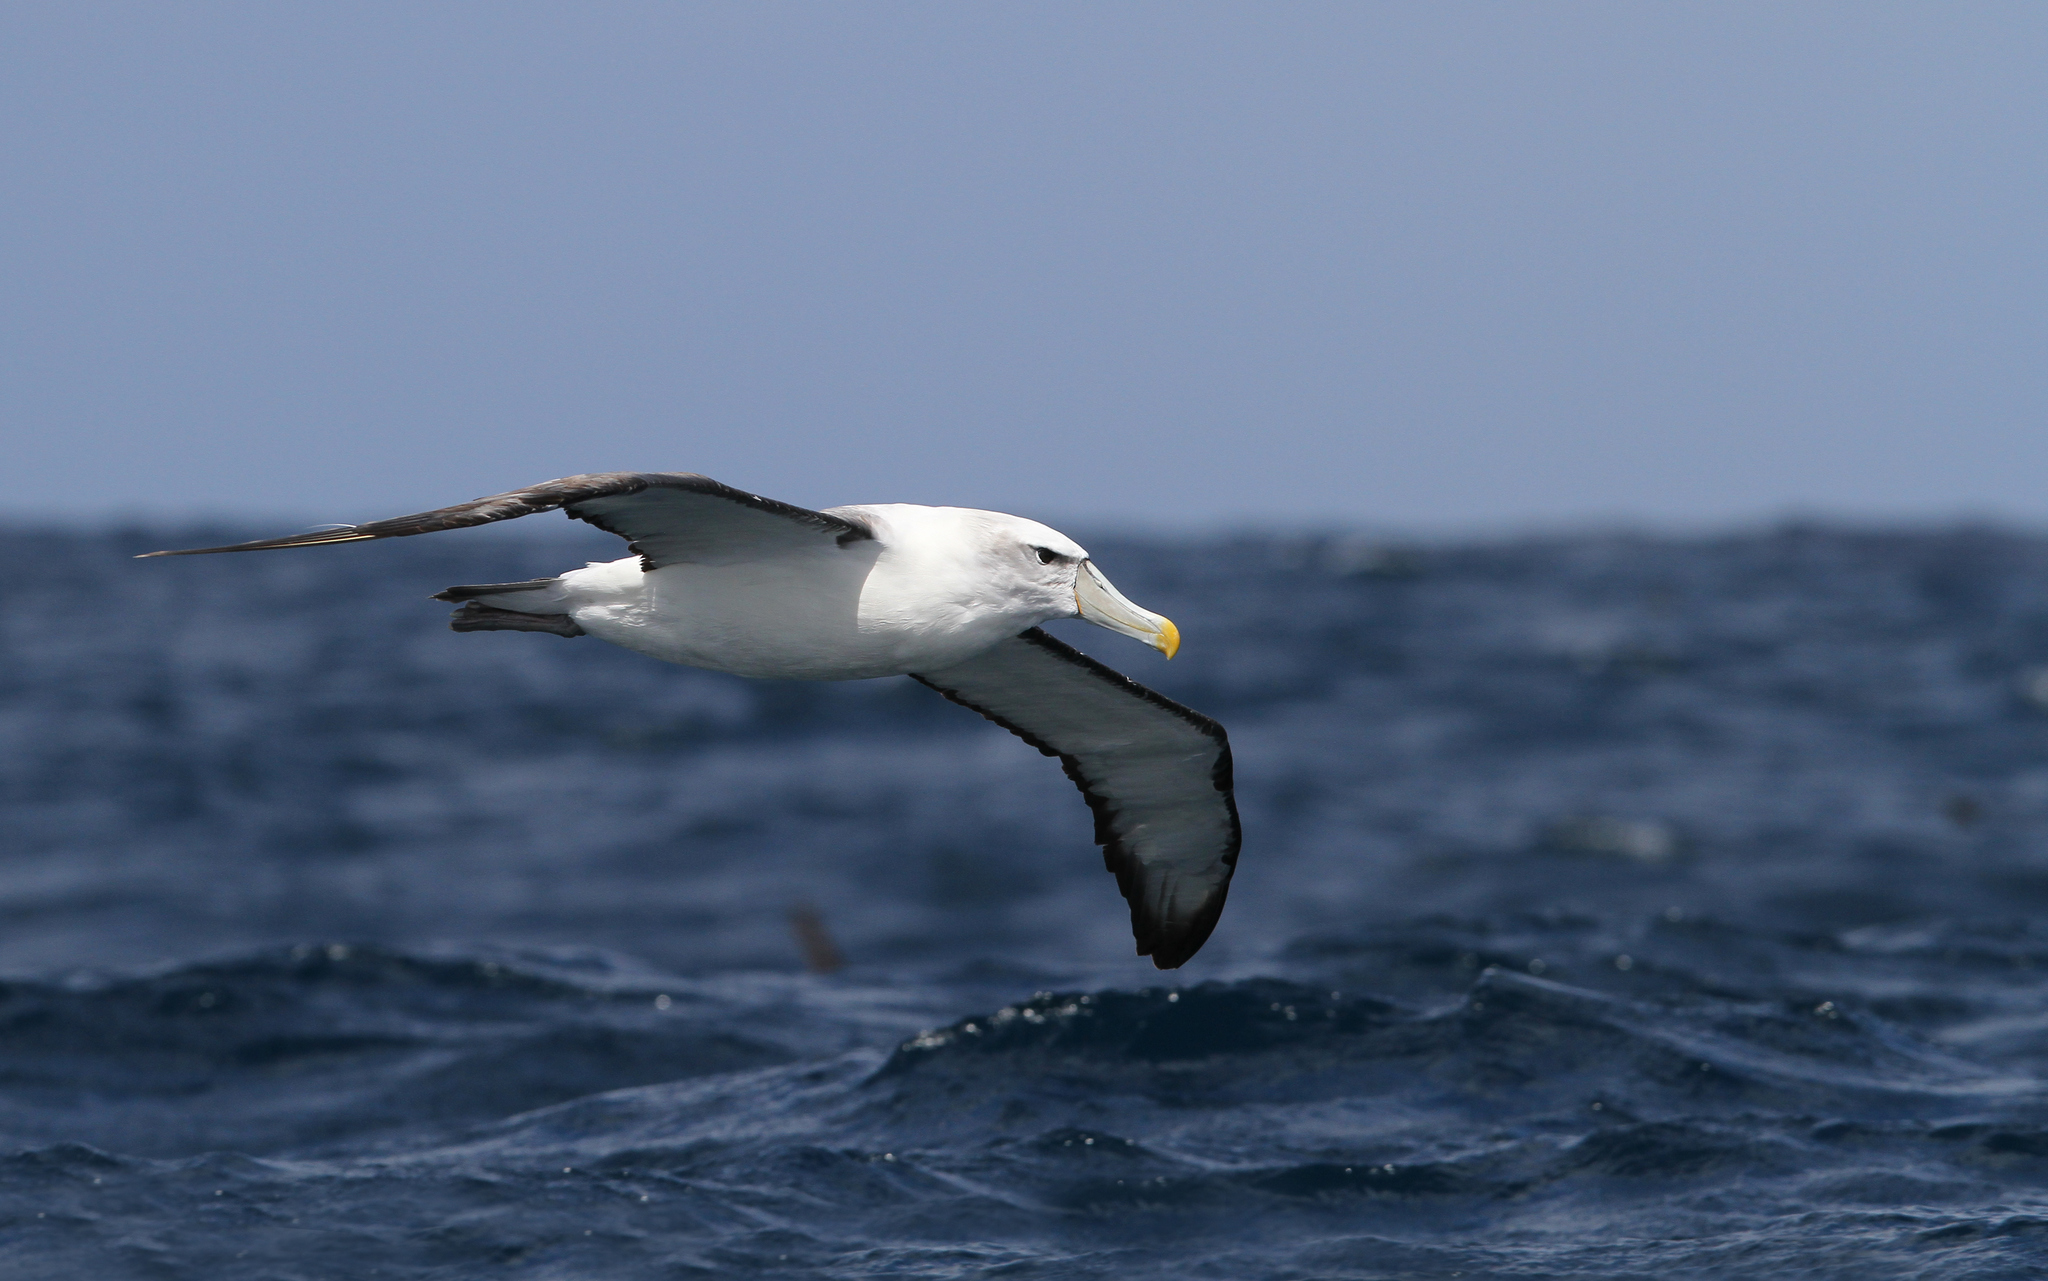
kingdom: Animalia
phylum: Chordata
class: Aves
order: Procellariiformes
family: Diomedeidae
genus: Thalassarche
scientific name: Thalassarche cauta
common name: Shy albatross
